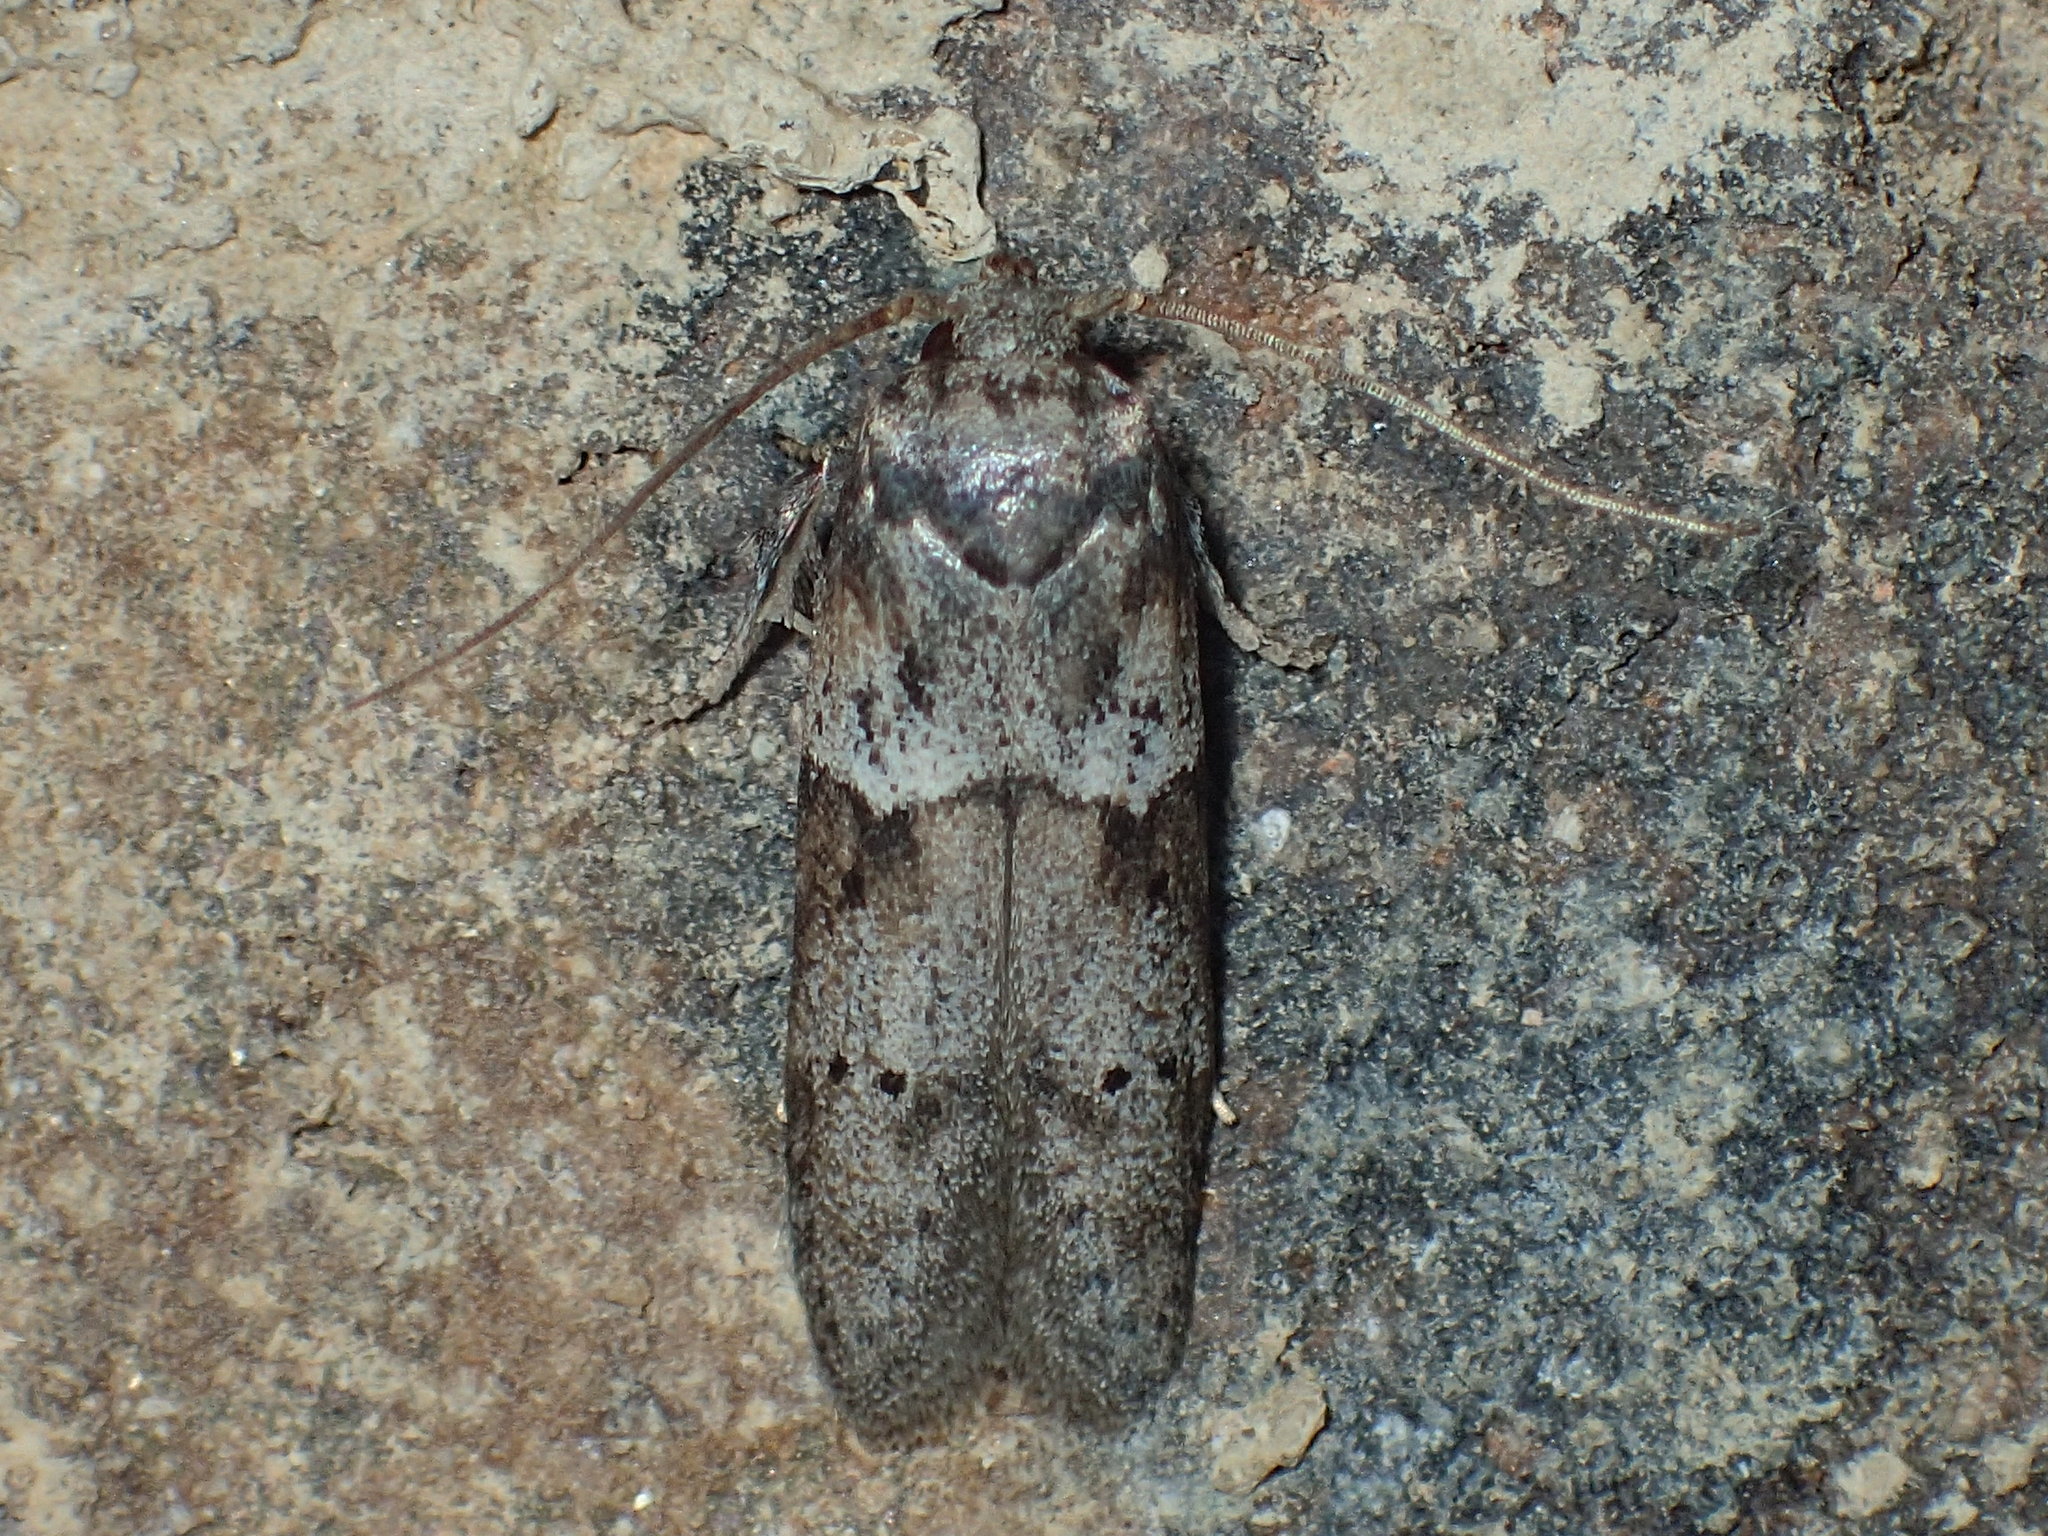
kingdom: Animalia
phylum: Arthropoda
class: Insecta
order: Lepidoptera
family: Blastobasidae
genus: Blastobasis
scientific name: Blastobasis glandulella
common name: Acorn moth
